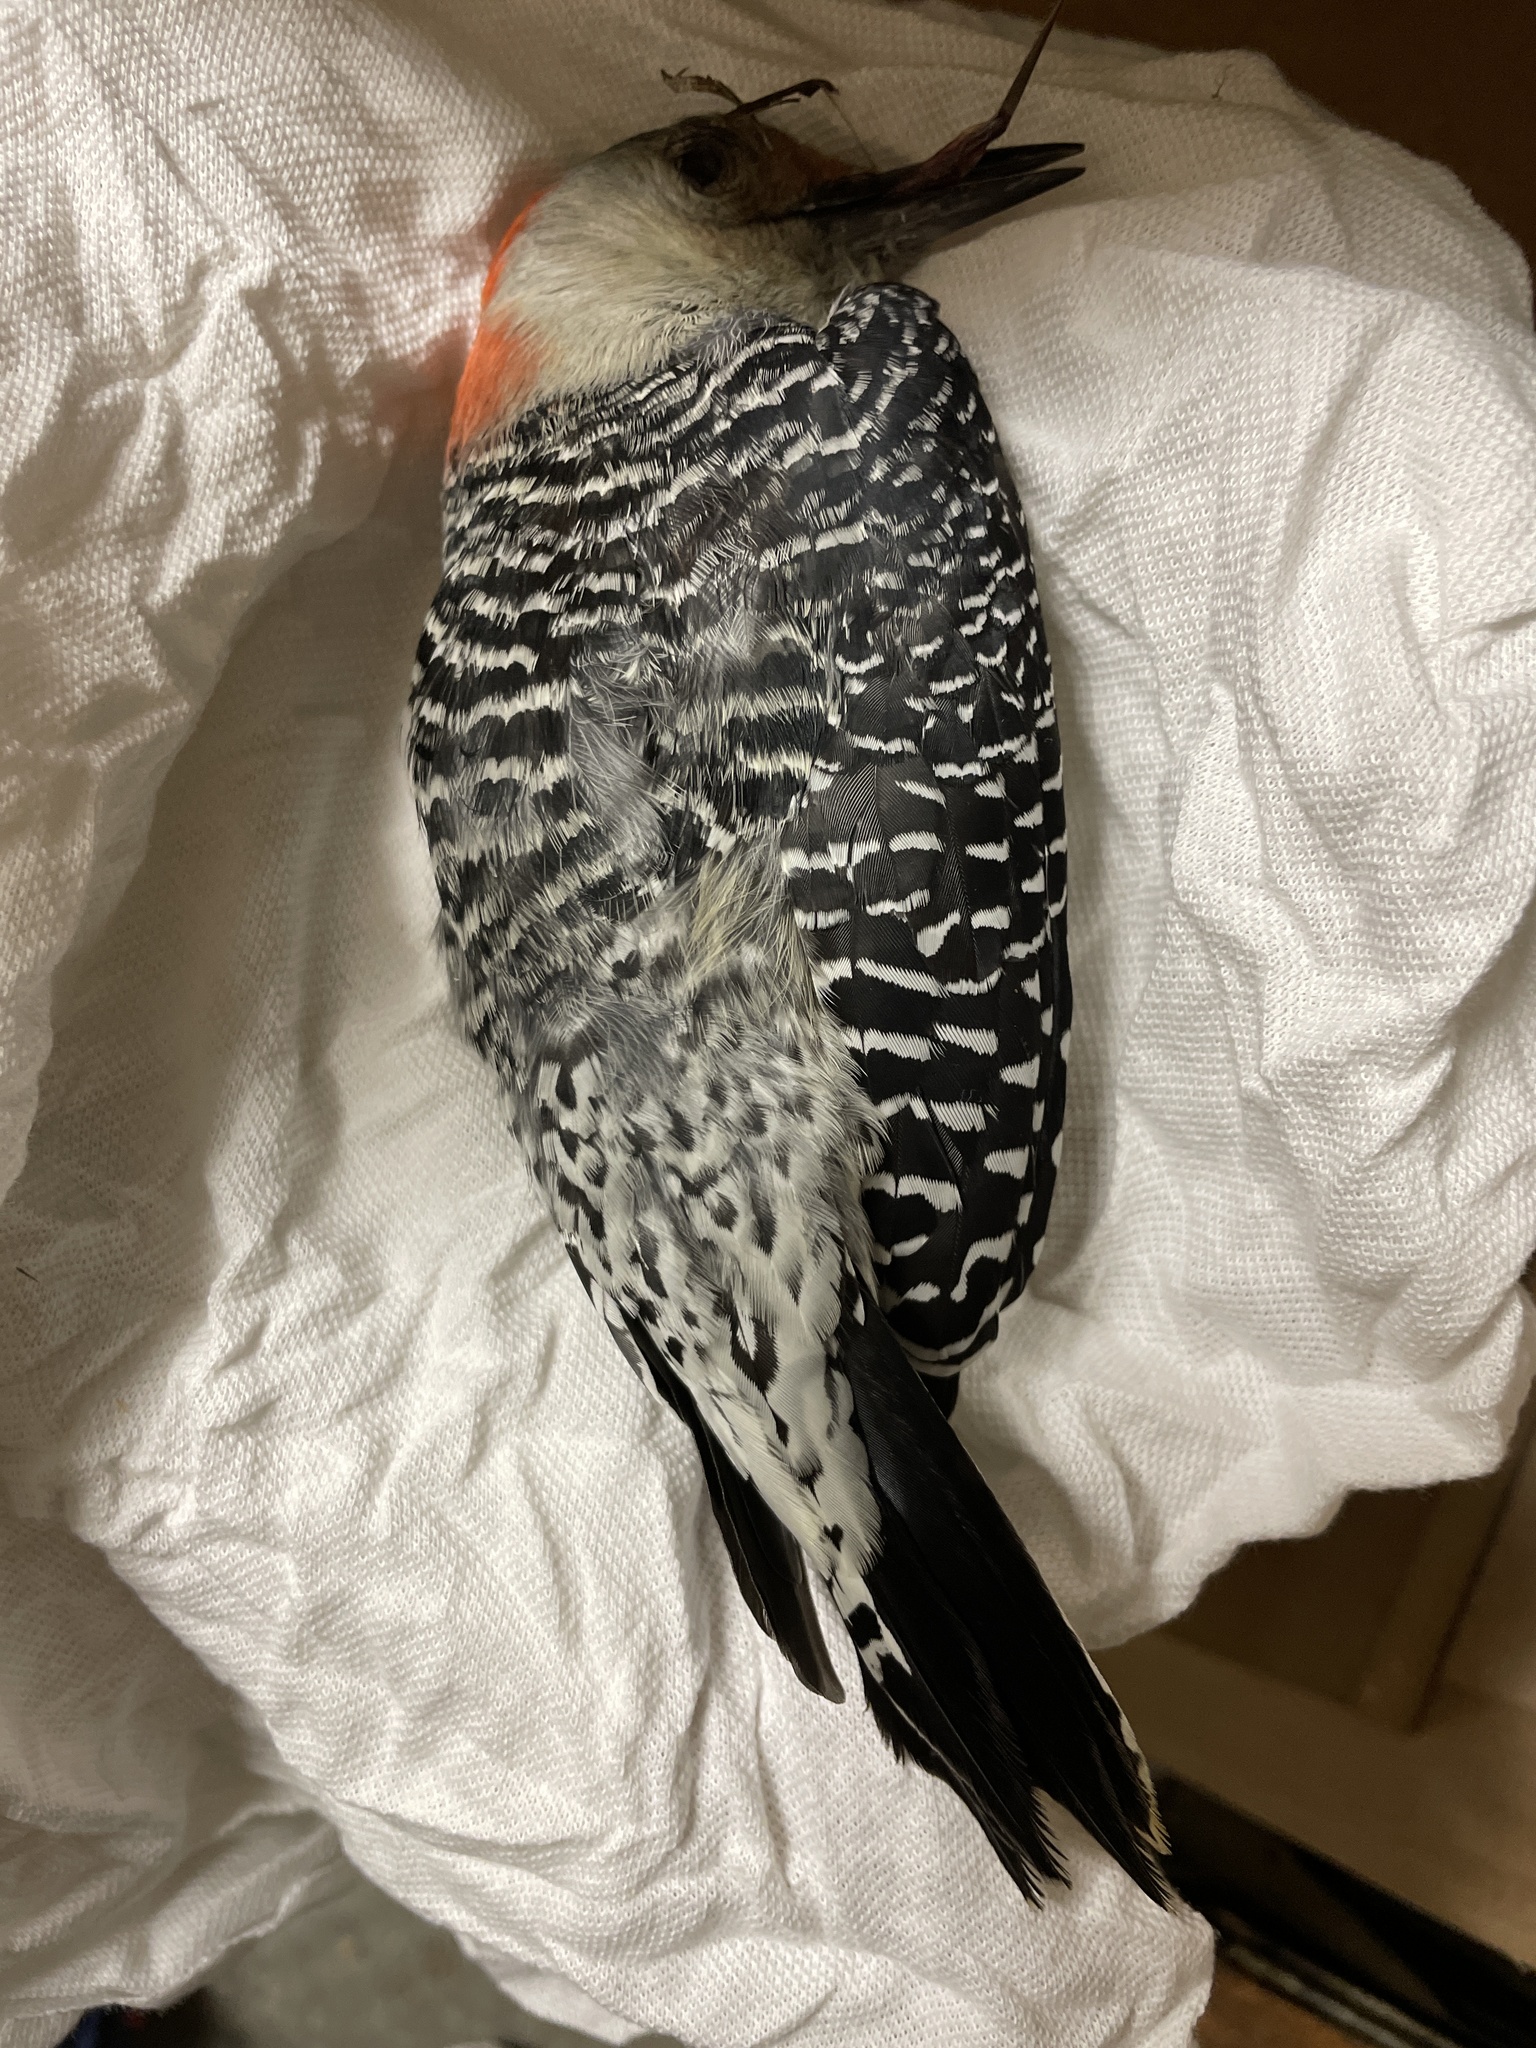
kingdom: Animalia
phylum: Chordata
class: Aves
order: Piciformes
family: Picidae
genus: Melanerpes
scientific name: Melanerpes carolinus
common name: Red-bellied woodpecker
